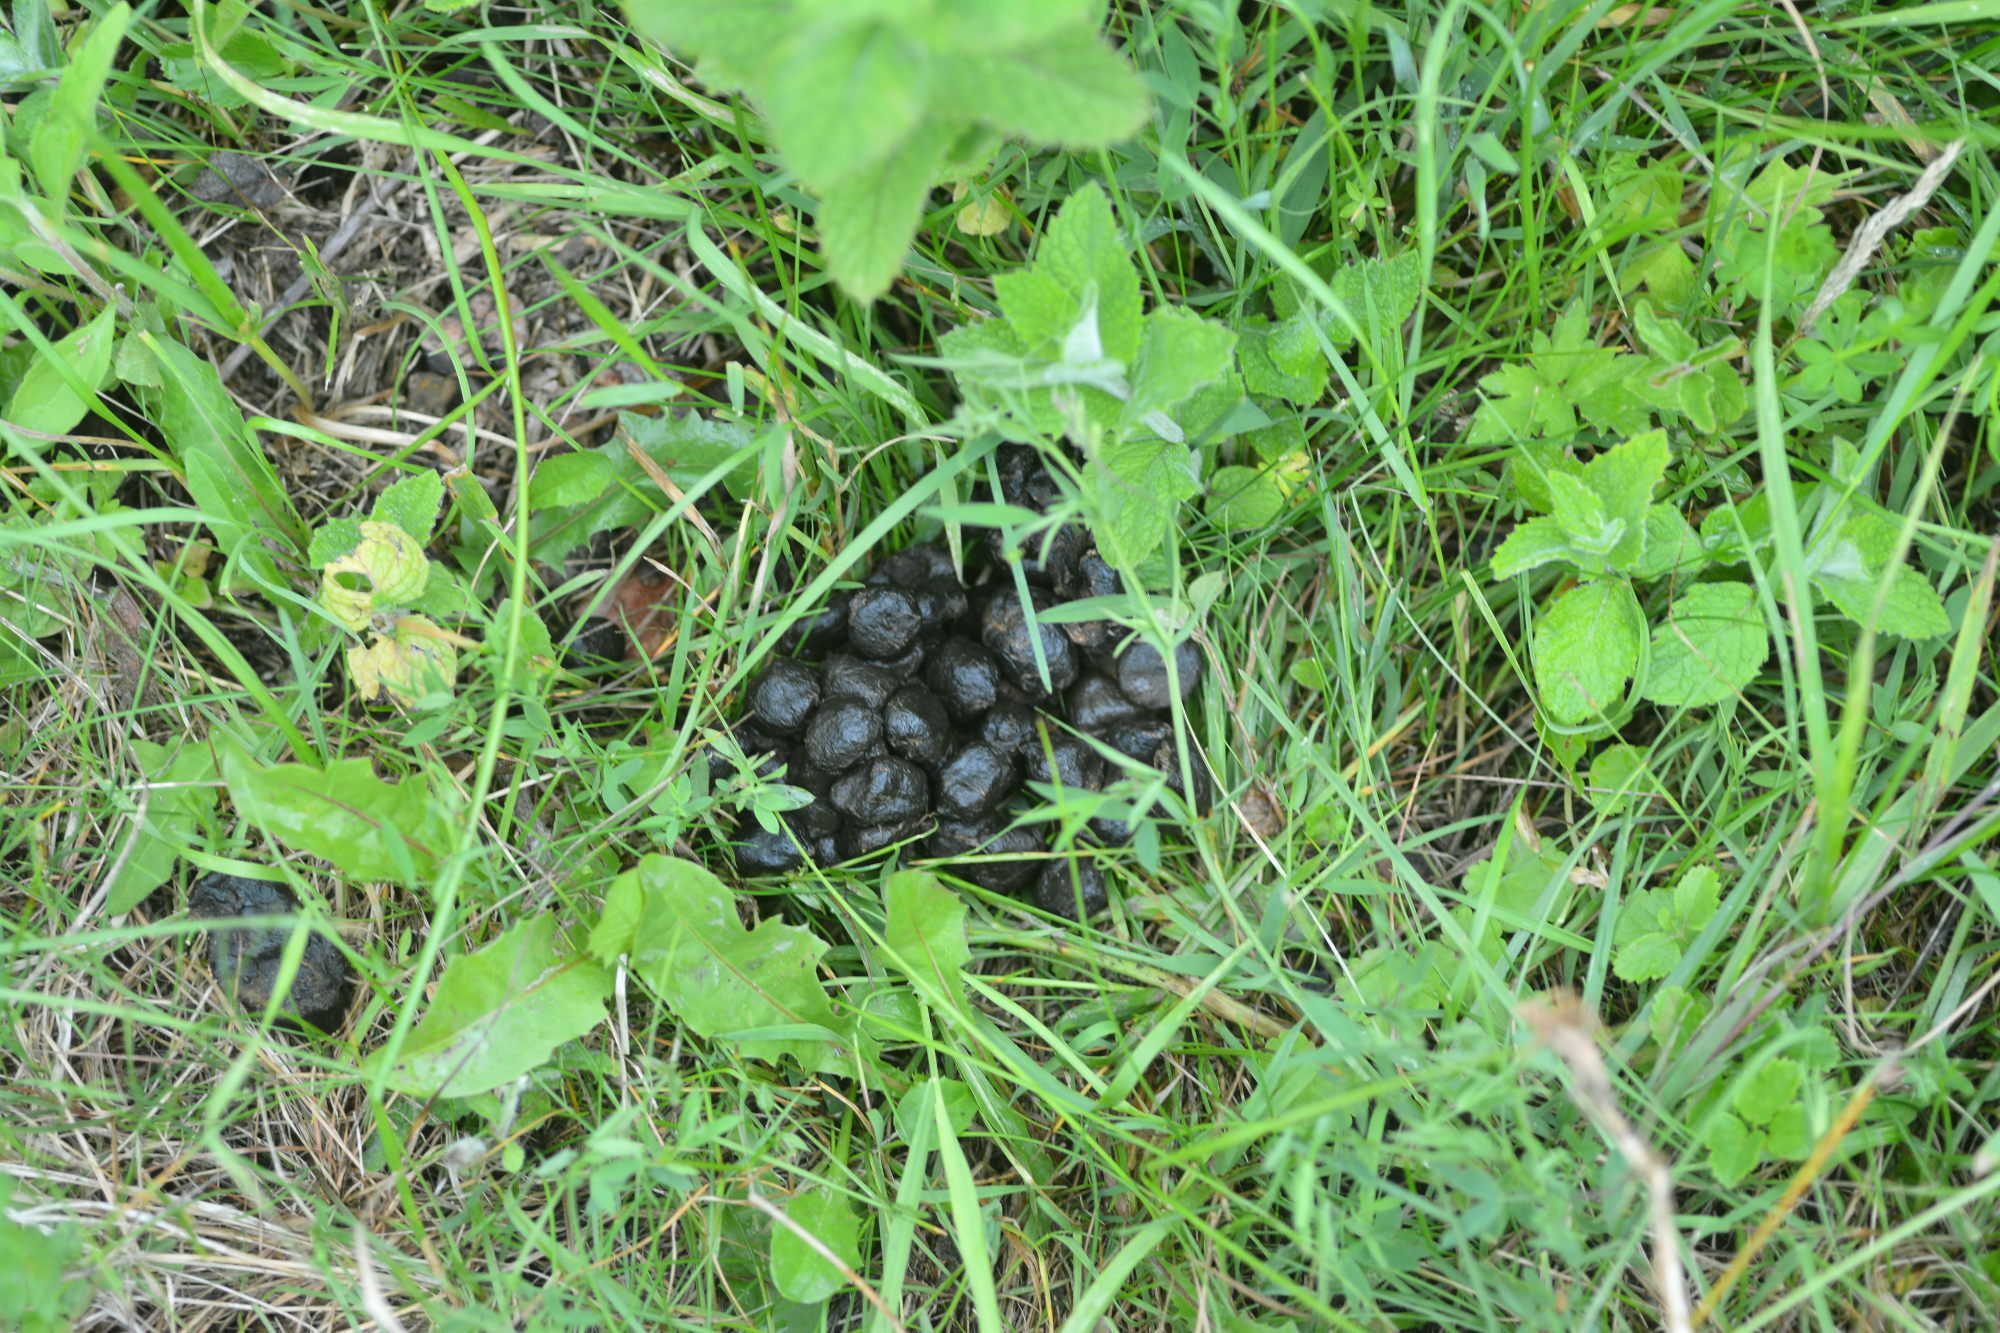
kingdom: Animalia
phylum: Chordata
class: Mammalia
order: Artiodactyla
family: Suidae
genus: Sus
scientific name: Sus scrofa
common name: Wild boar
